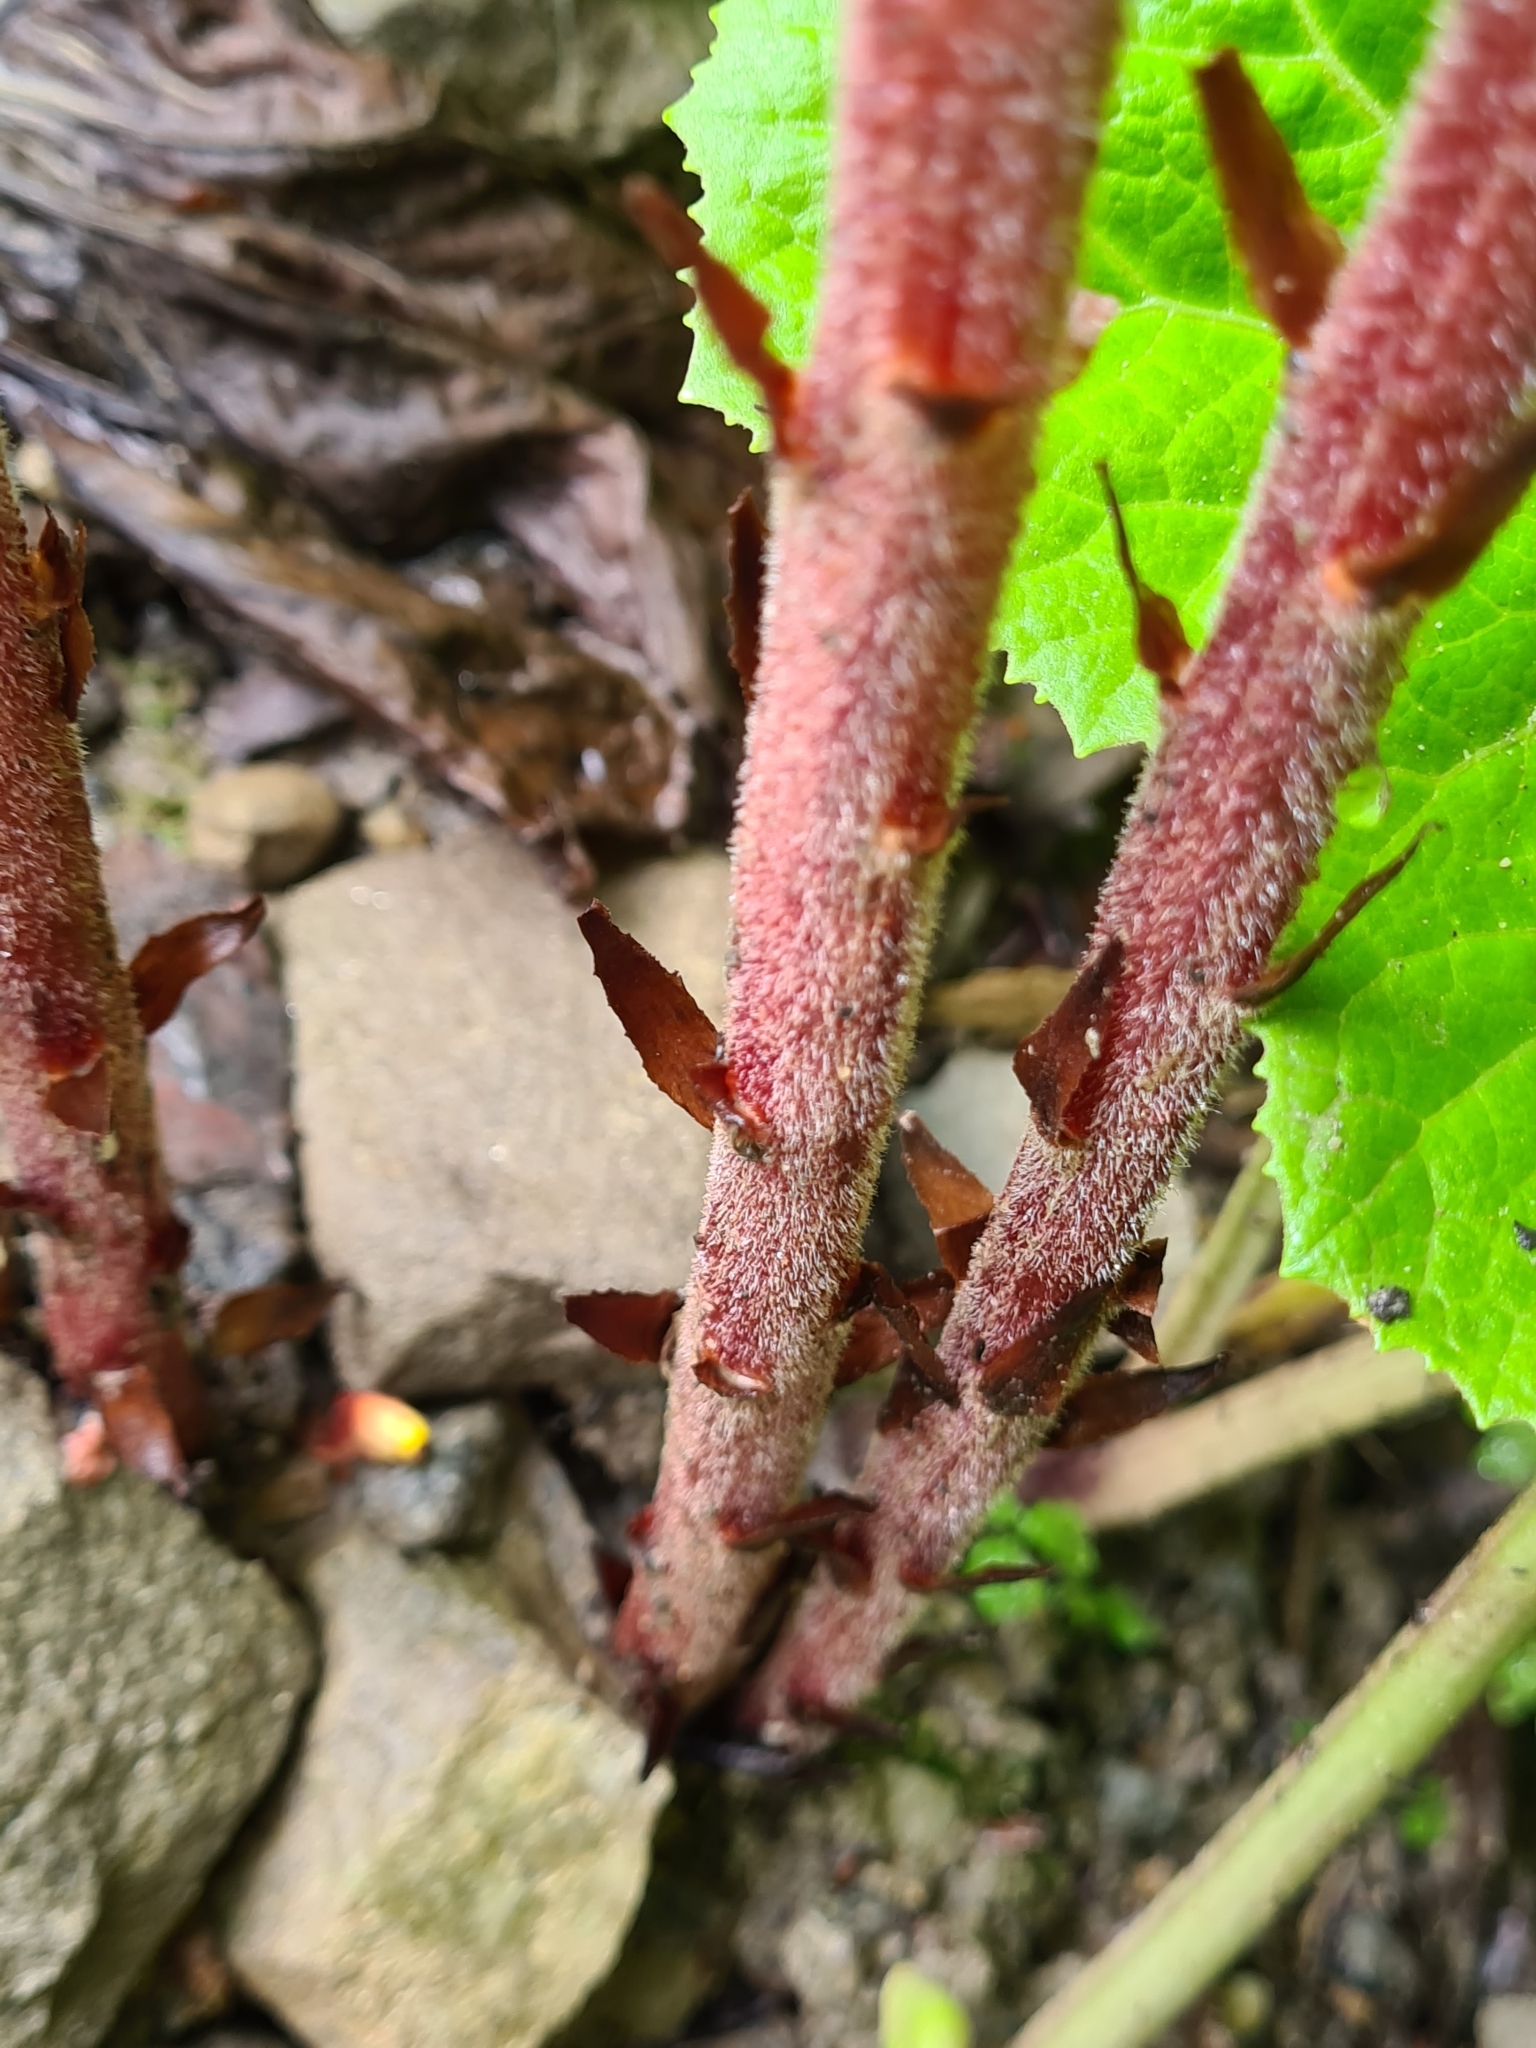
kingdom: Plantae
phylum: Tracheophyta
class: Magnoliopsida
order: Lamiales
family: Orobanchaceae
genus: Orobanche
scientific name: Orobanche flava
